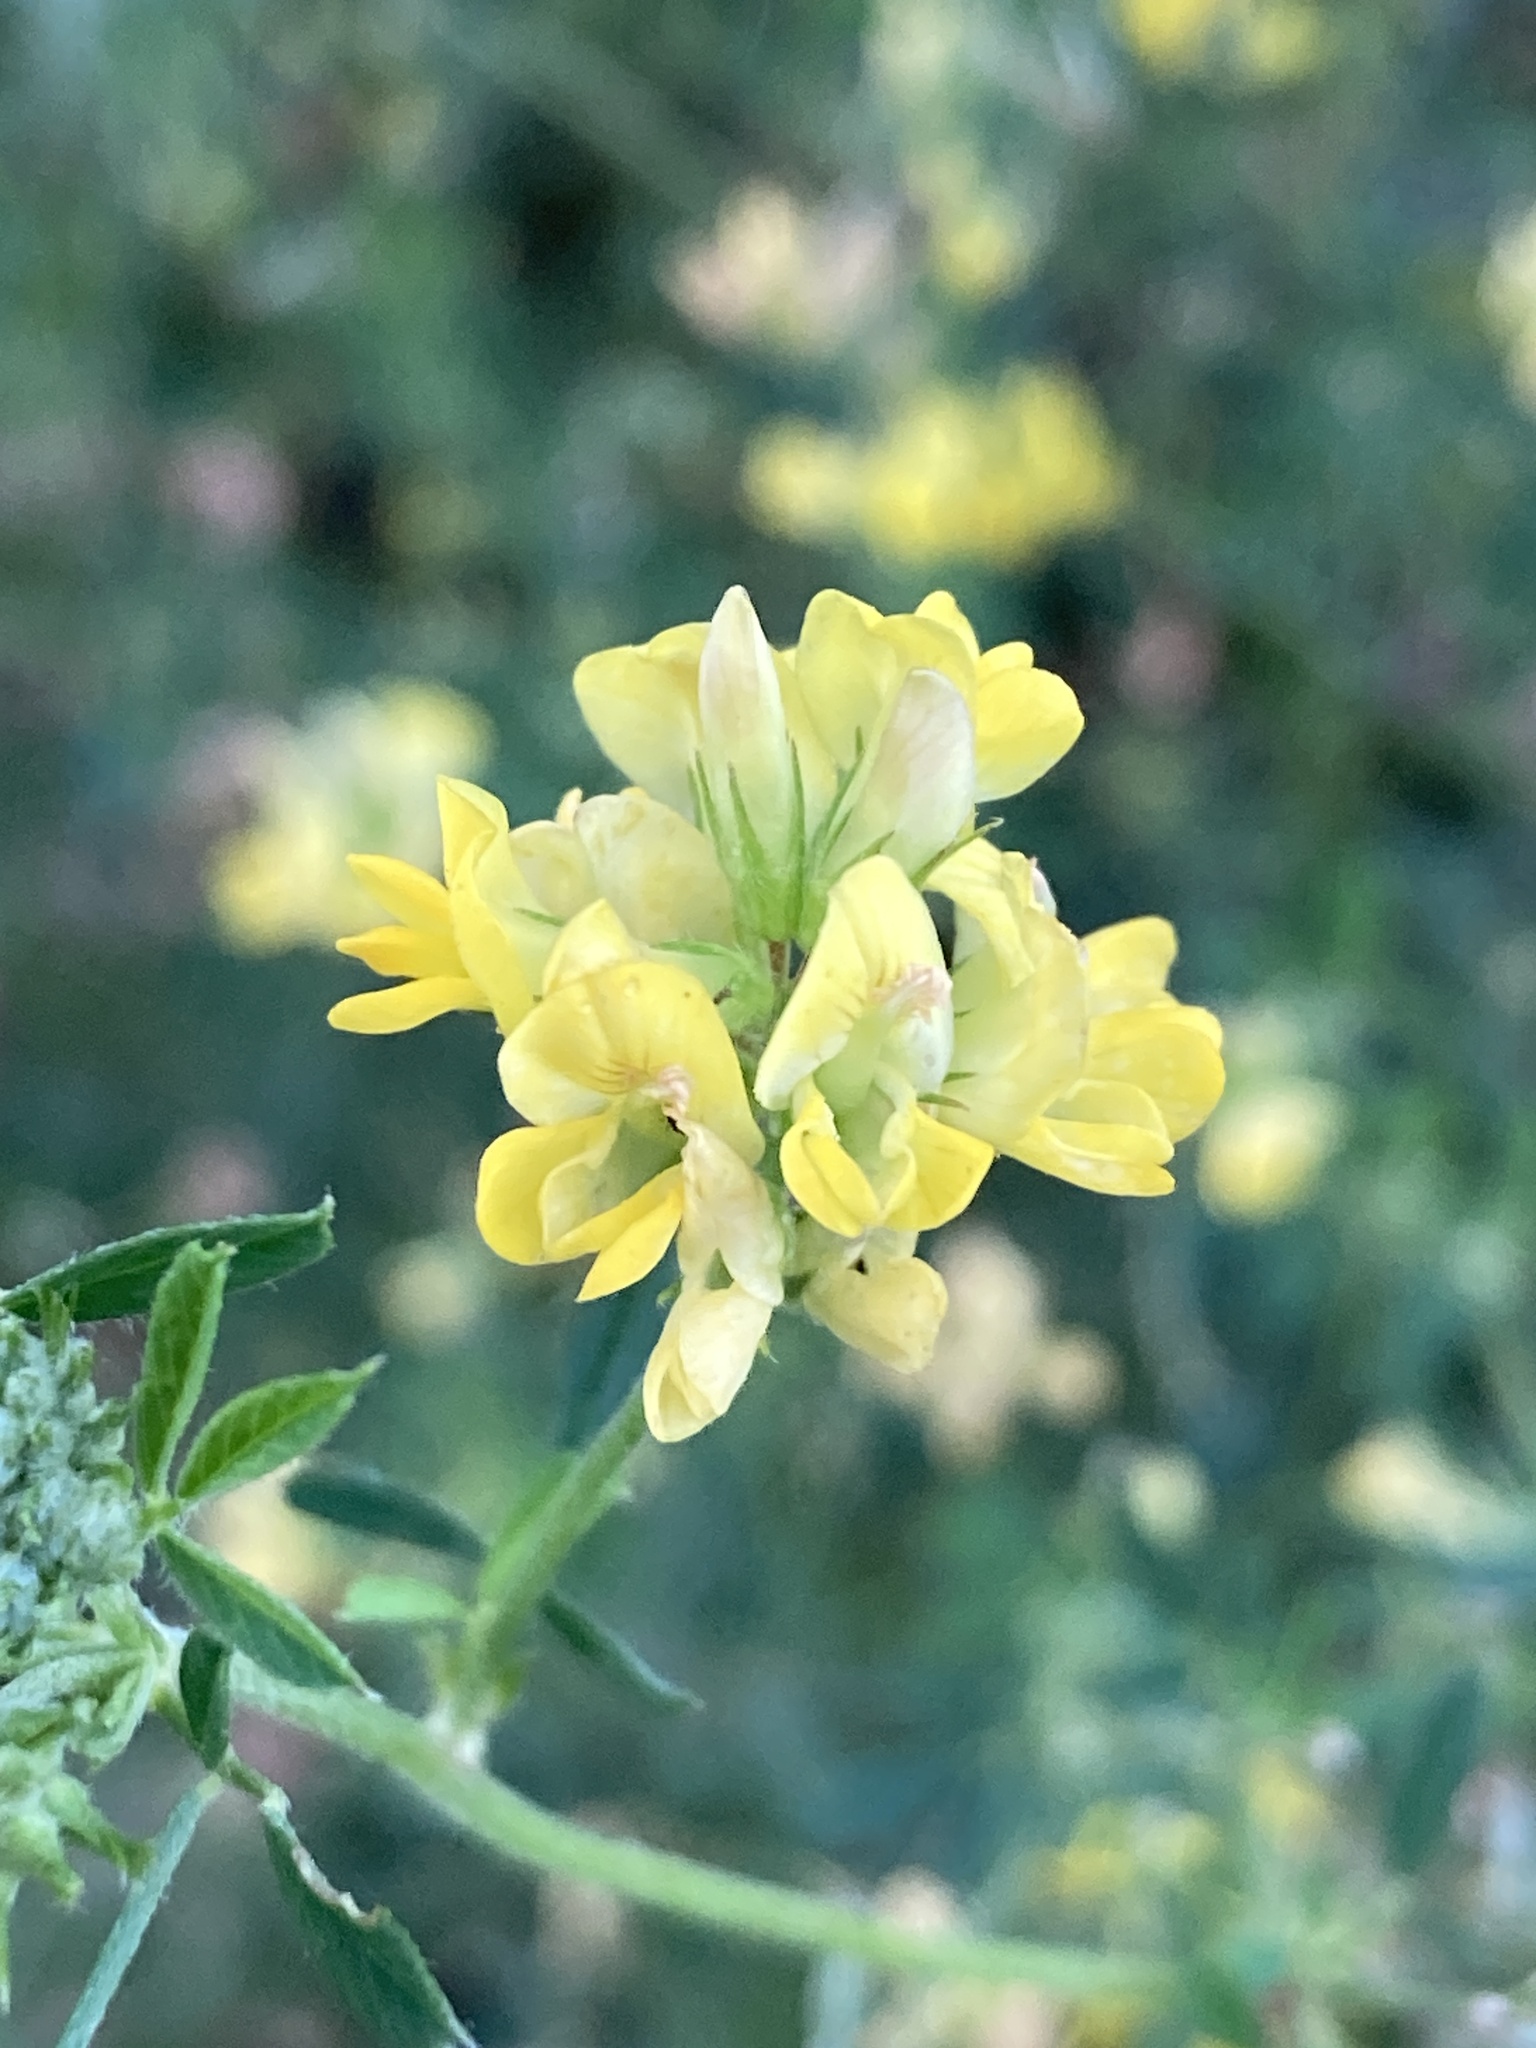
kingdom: Plantae
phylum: Tracheophyta
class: Magnoliopsida
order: Fabales
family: Fabaceae
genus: Medicago
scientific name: Medicago falcata
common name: Sickle medick
